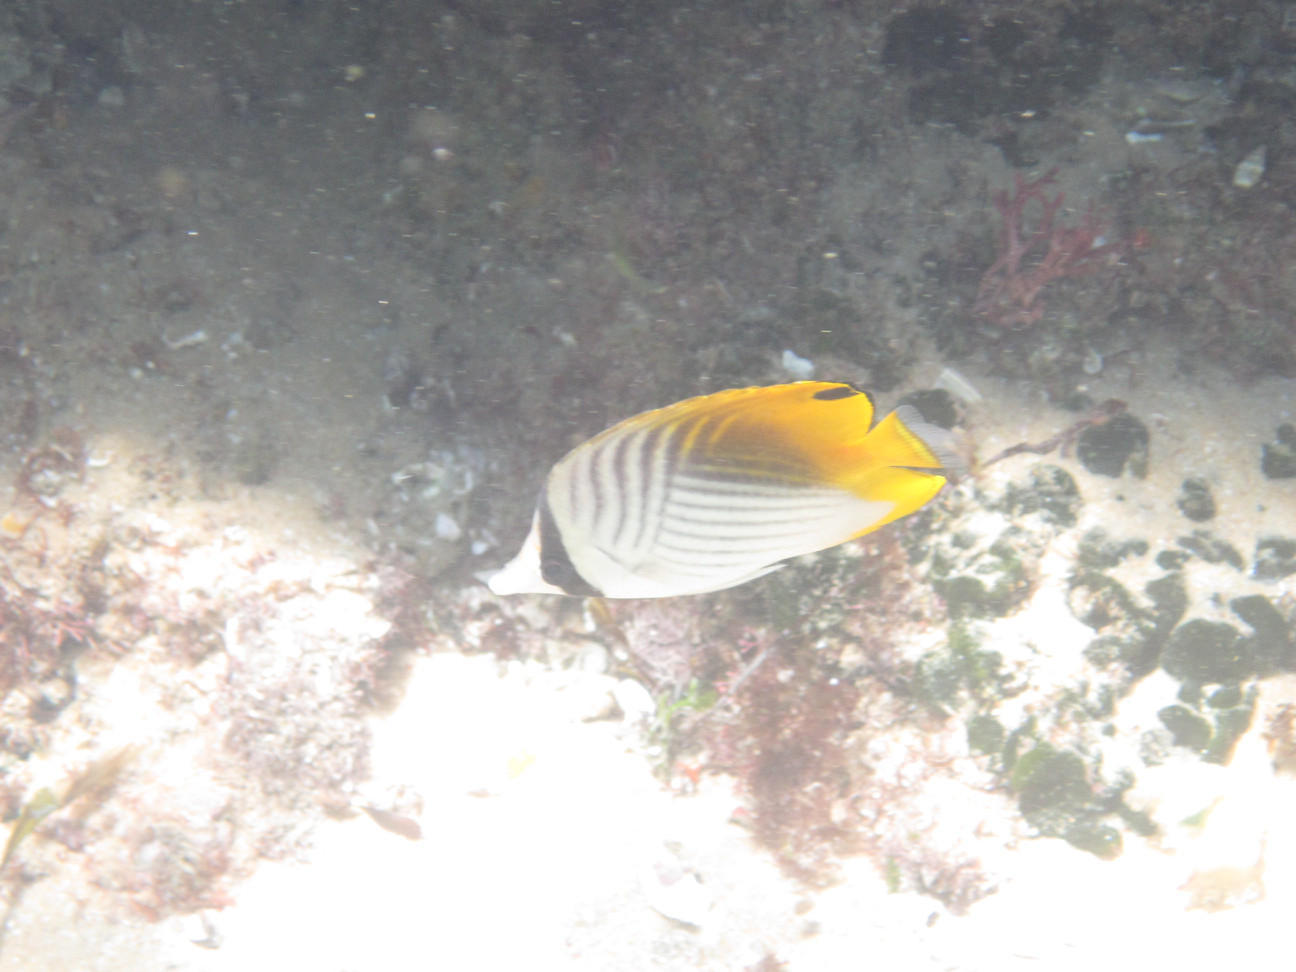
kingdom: Animalia
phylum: Chordata
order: Perciformes
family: Chaetodontidae
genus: Chaetodon
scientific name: Chaetodon auriga
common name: Threadfin butterflyfish
